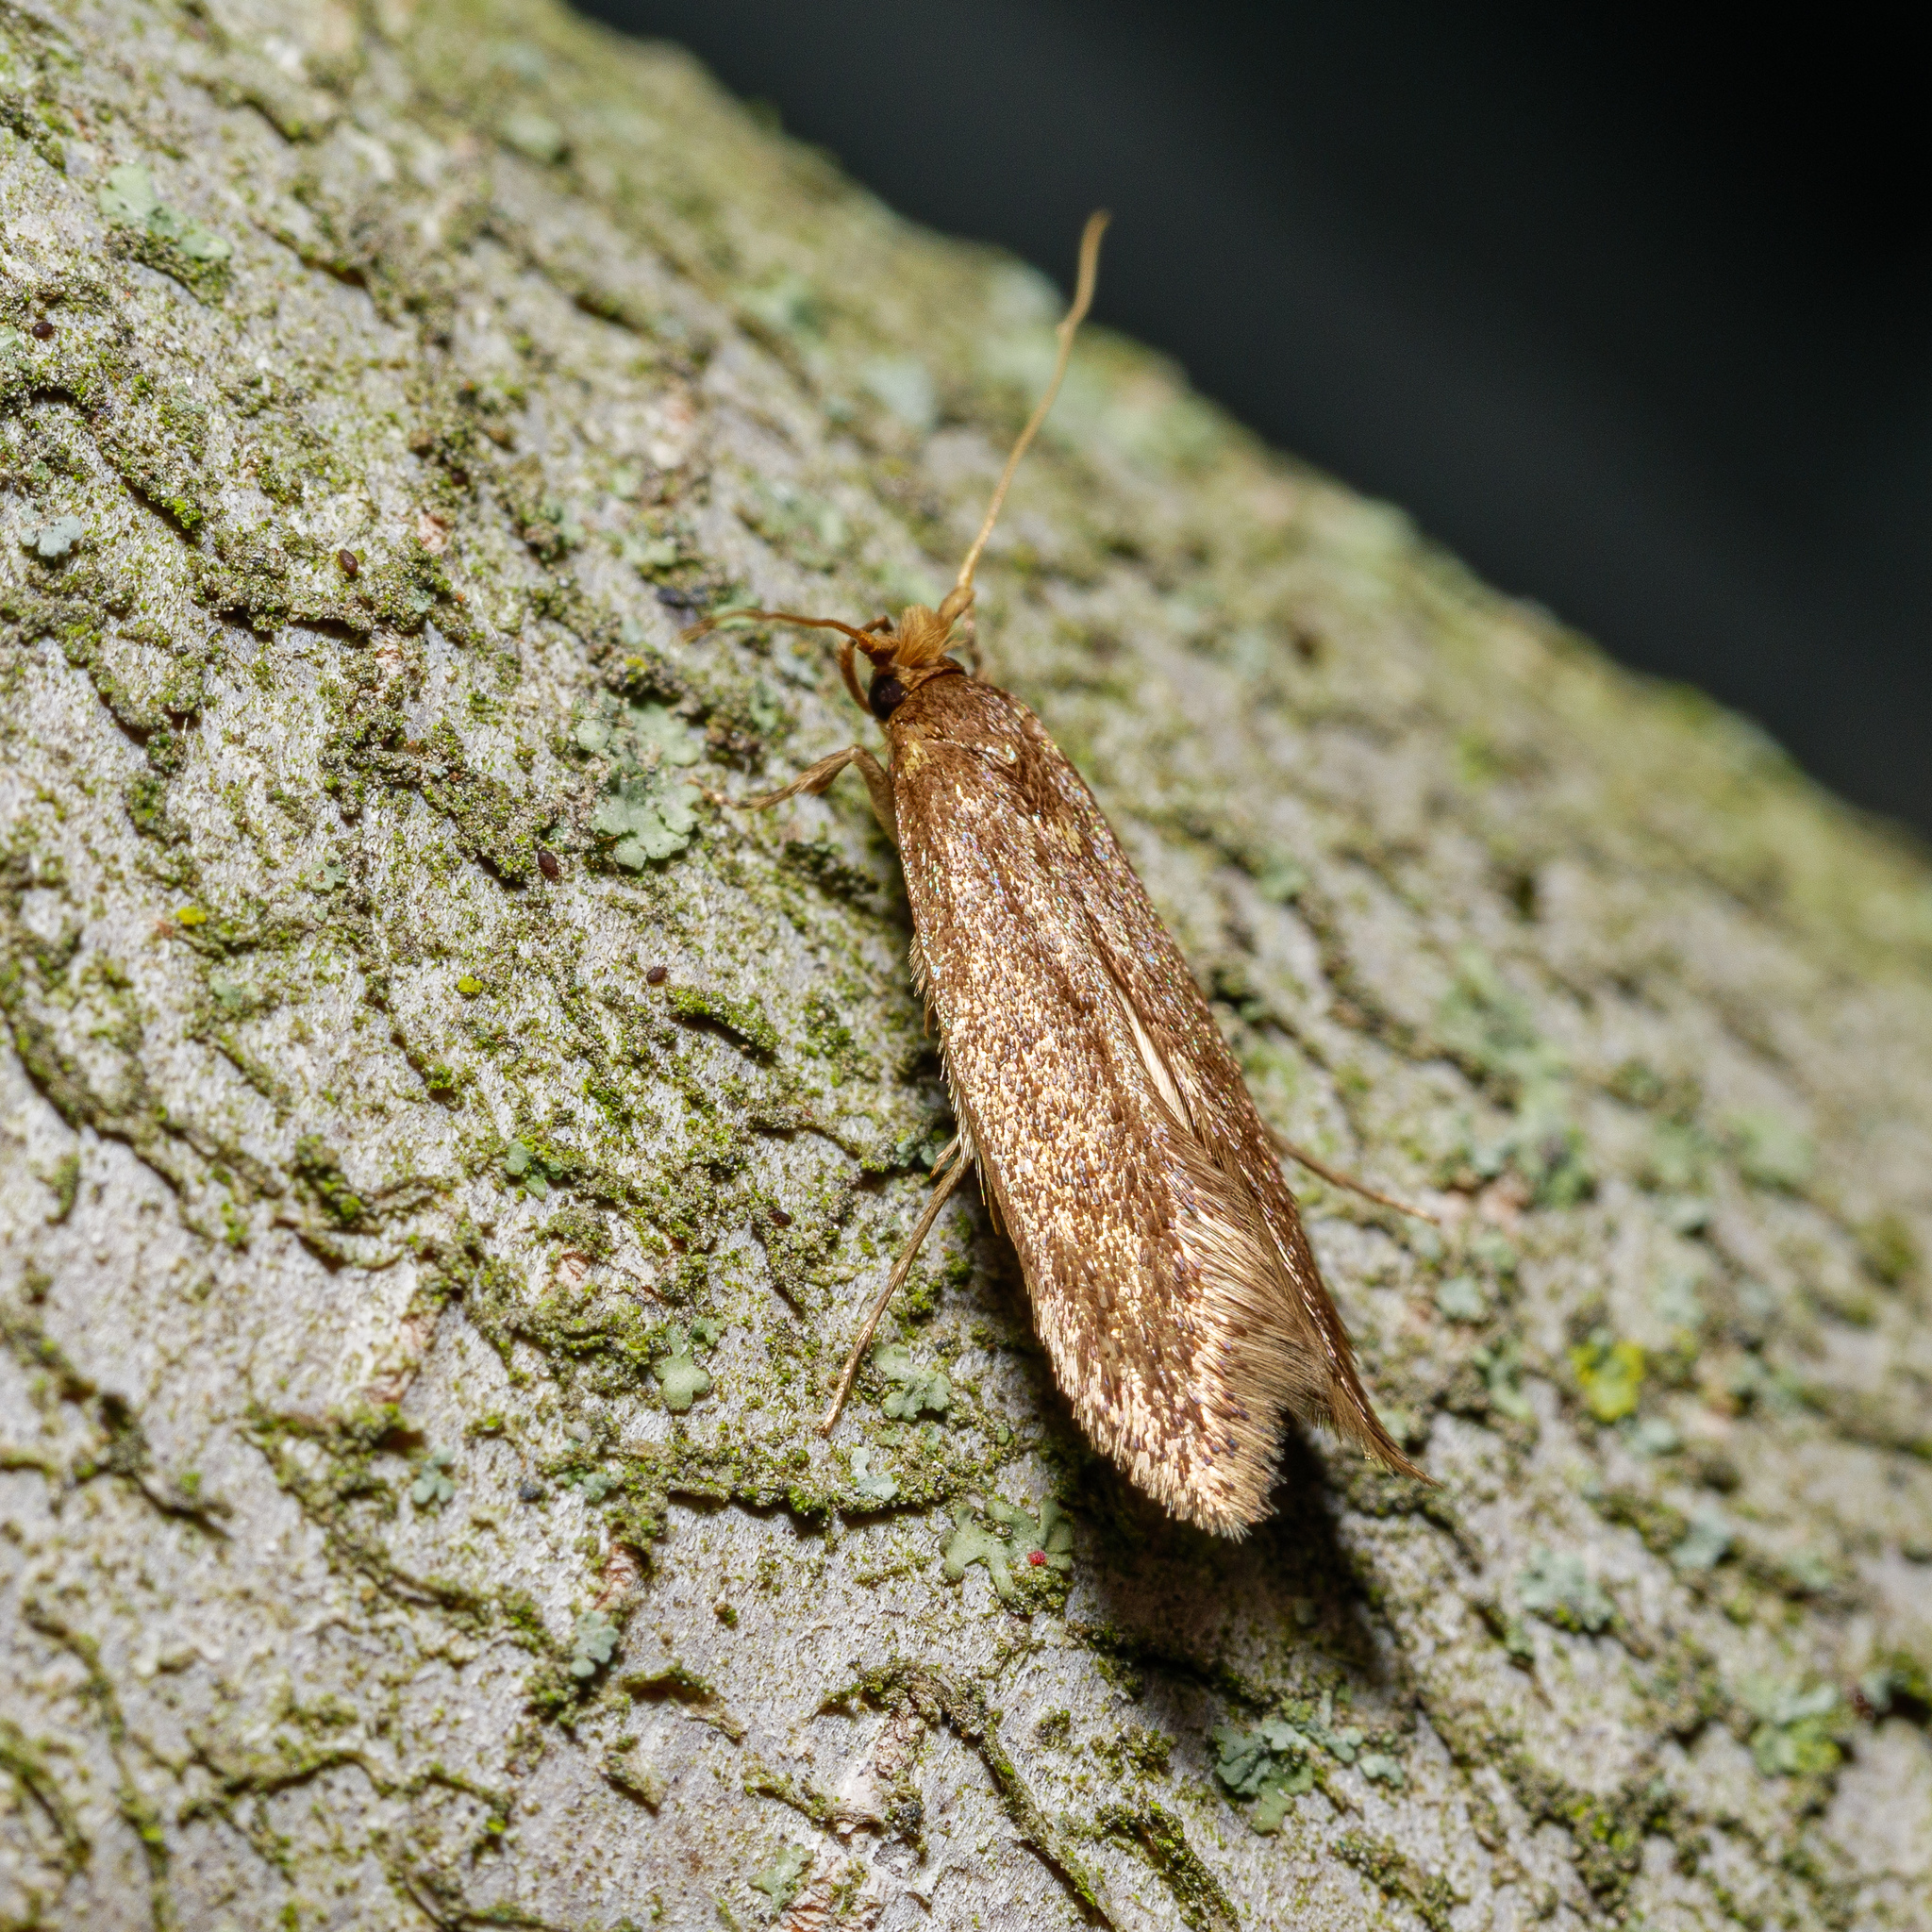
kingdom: Animalia
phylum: Arthropoda
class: Insecta
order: Lepidoptera
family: Tineidae
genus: Opogona
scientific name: Opogona omoscopa
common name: Moth
